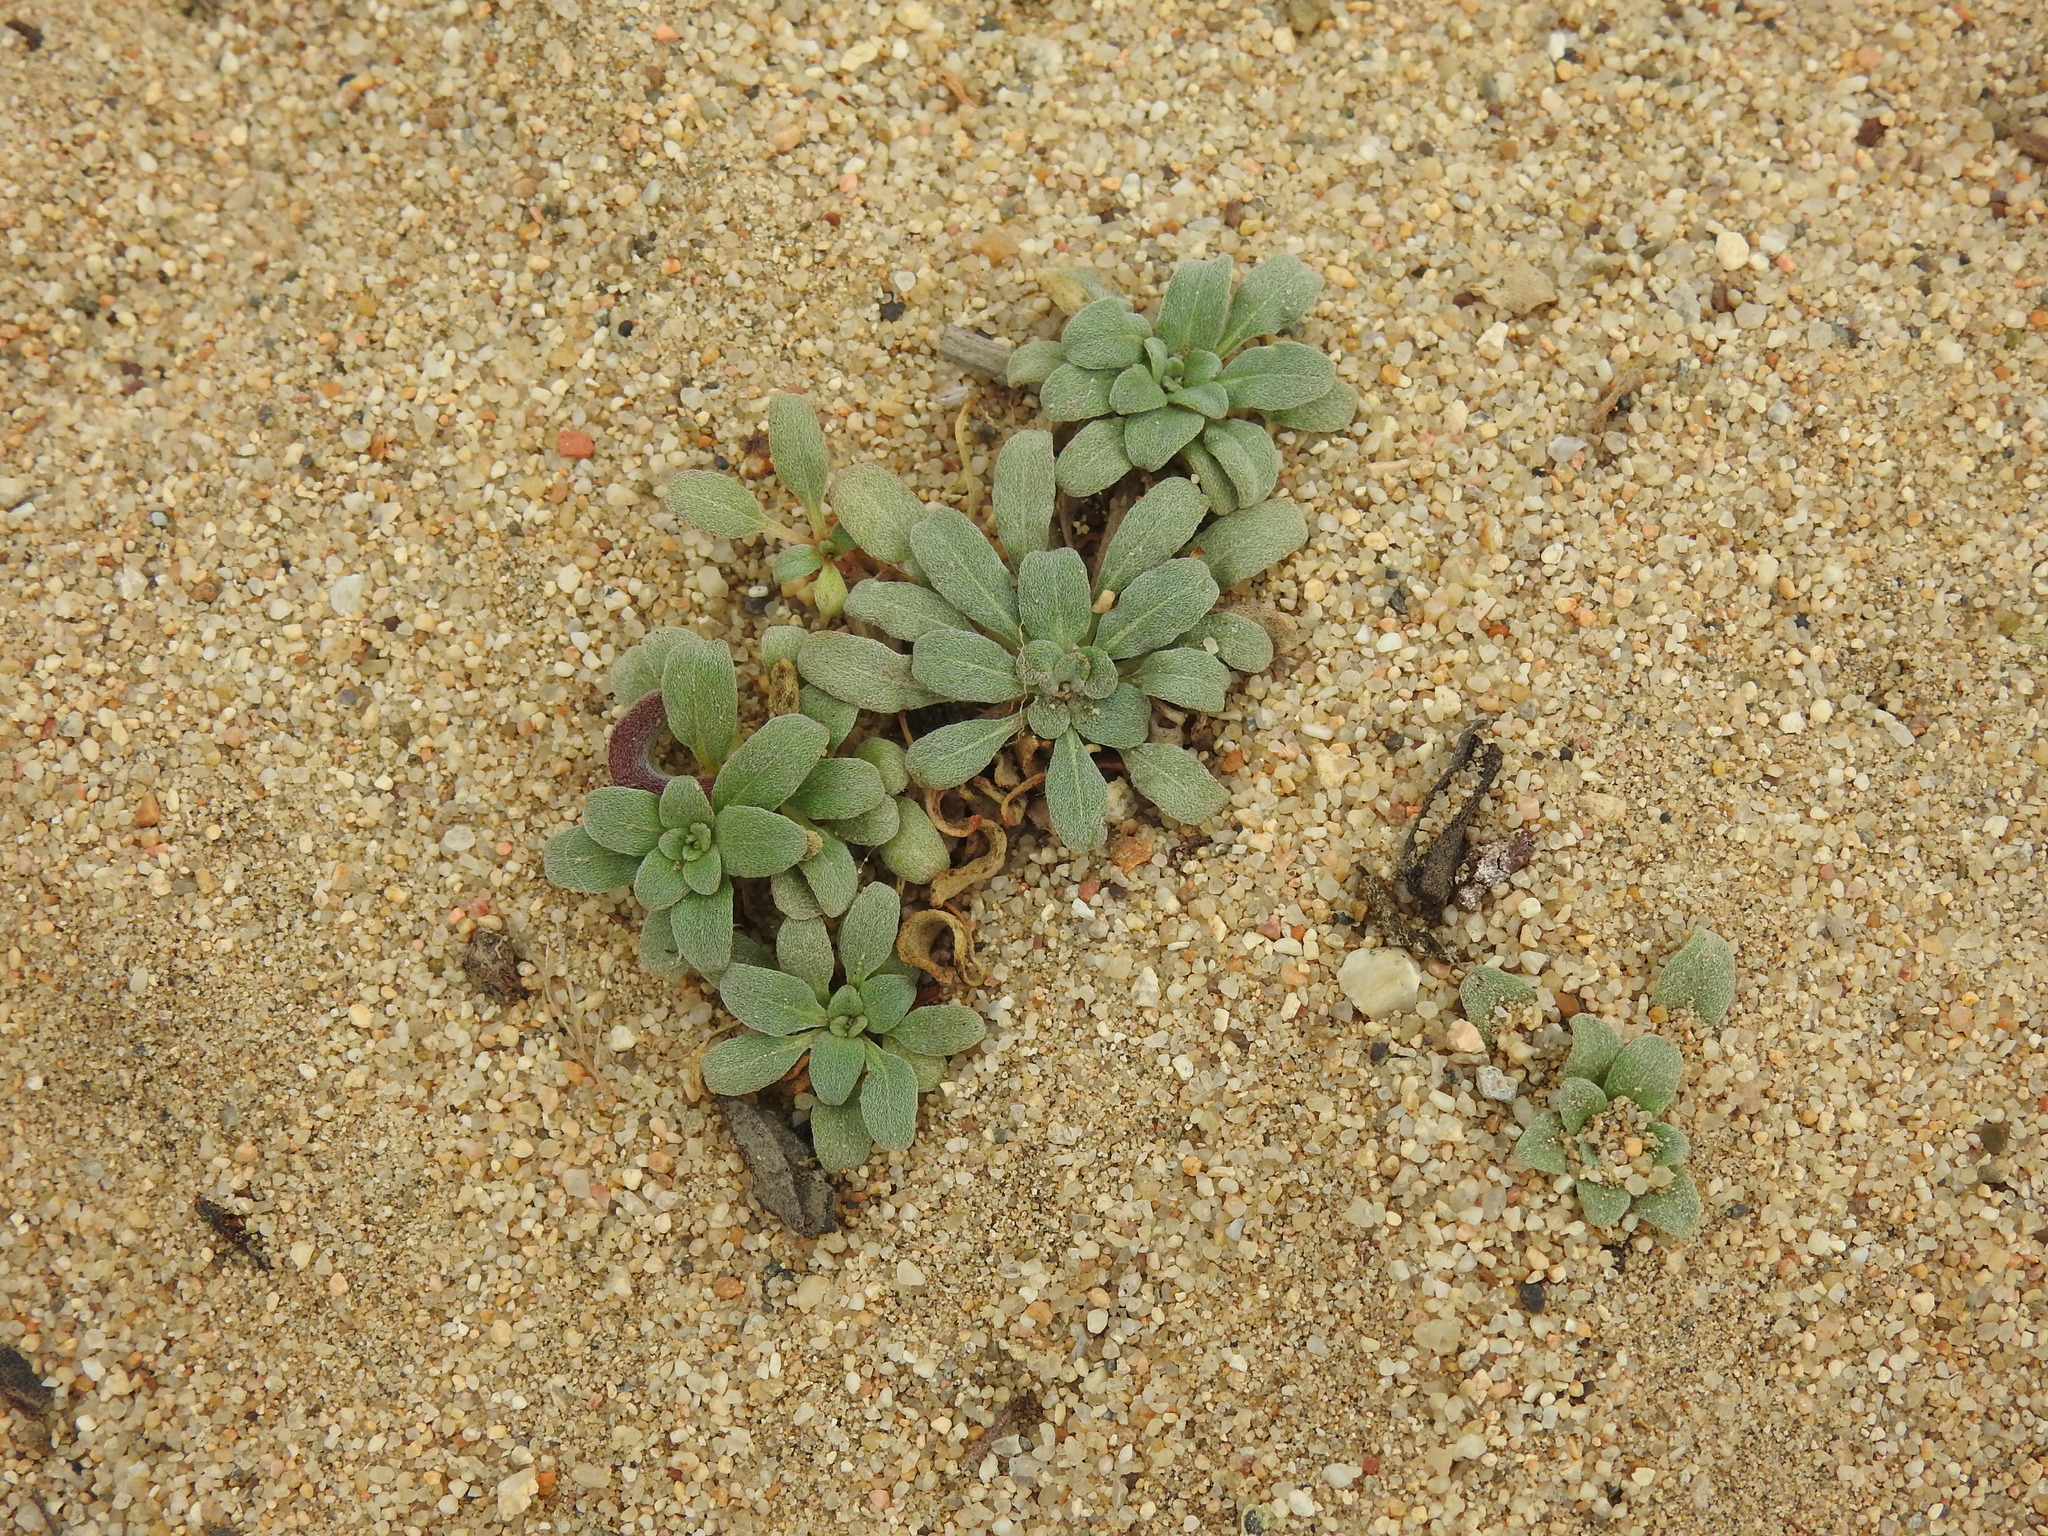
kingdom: Plantae
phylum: Tracheophyta
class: Magnoliopsida
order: Myrtales
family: Onagraceae
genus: Camissoniopsis
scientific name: Camissoniopsis cheiranthifolia
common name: Beach suncup
